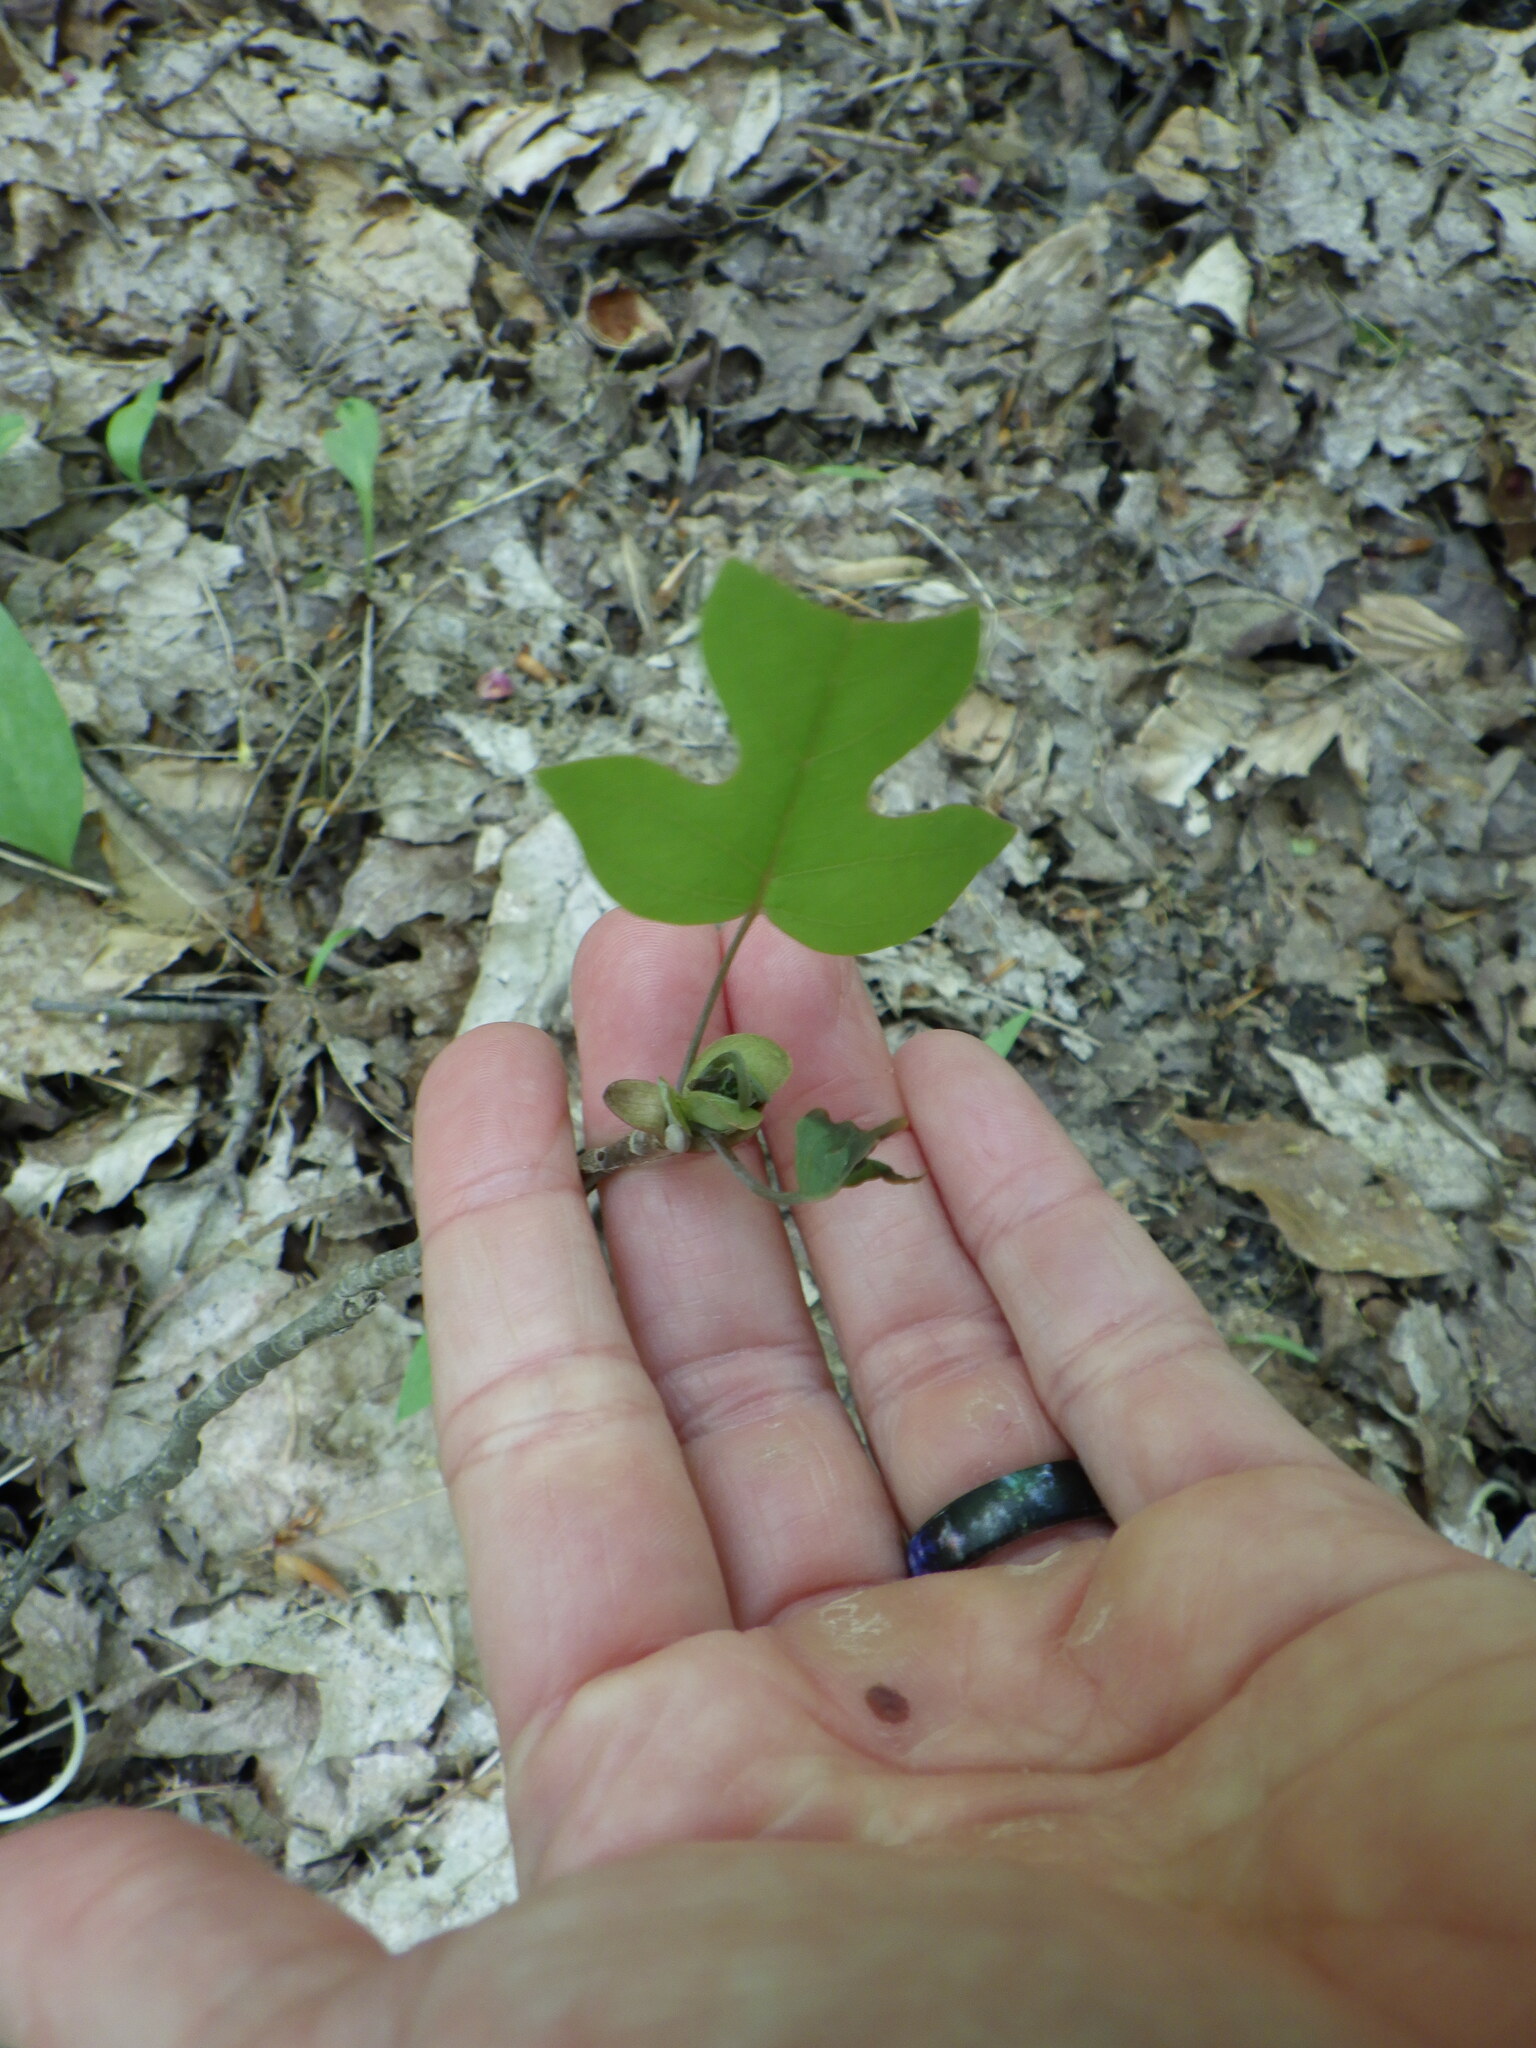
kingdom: Plantae
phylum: Tracheophyta
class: Magnoliopsida
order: Magnoliales
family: Magnoliaceae
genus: Liriodendron
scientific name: Liriodendron tulipifera
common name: Tulip tree
